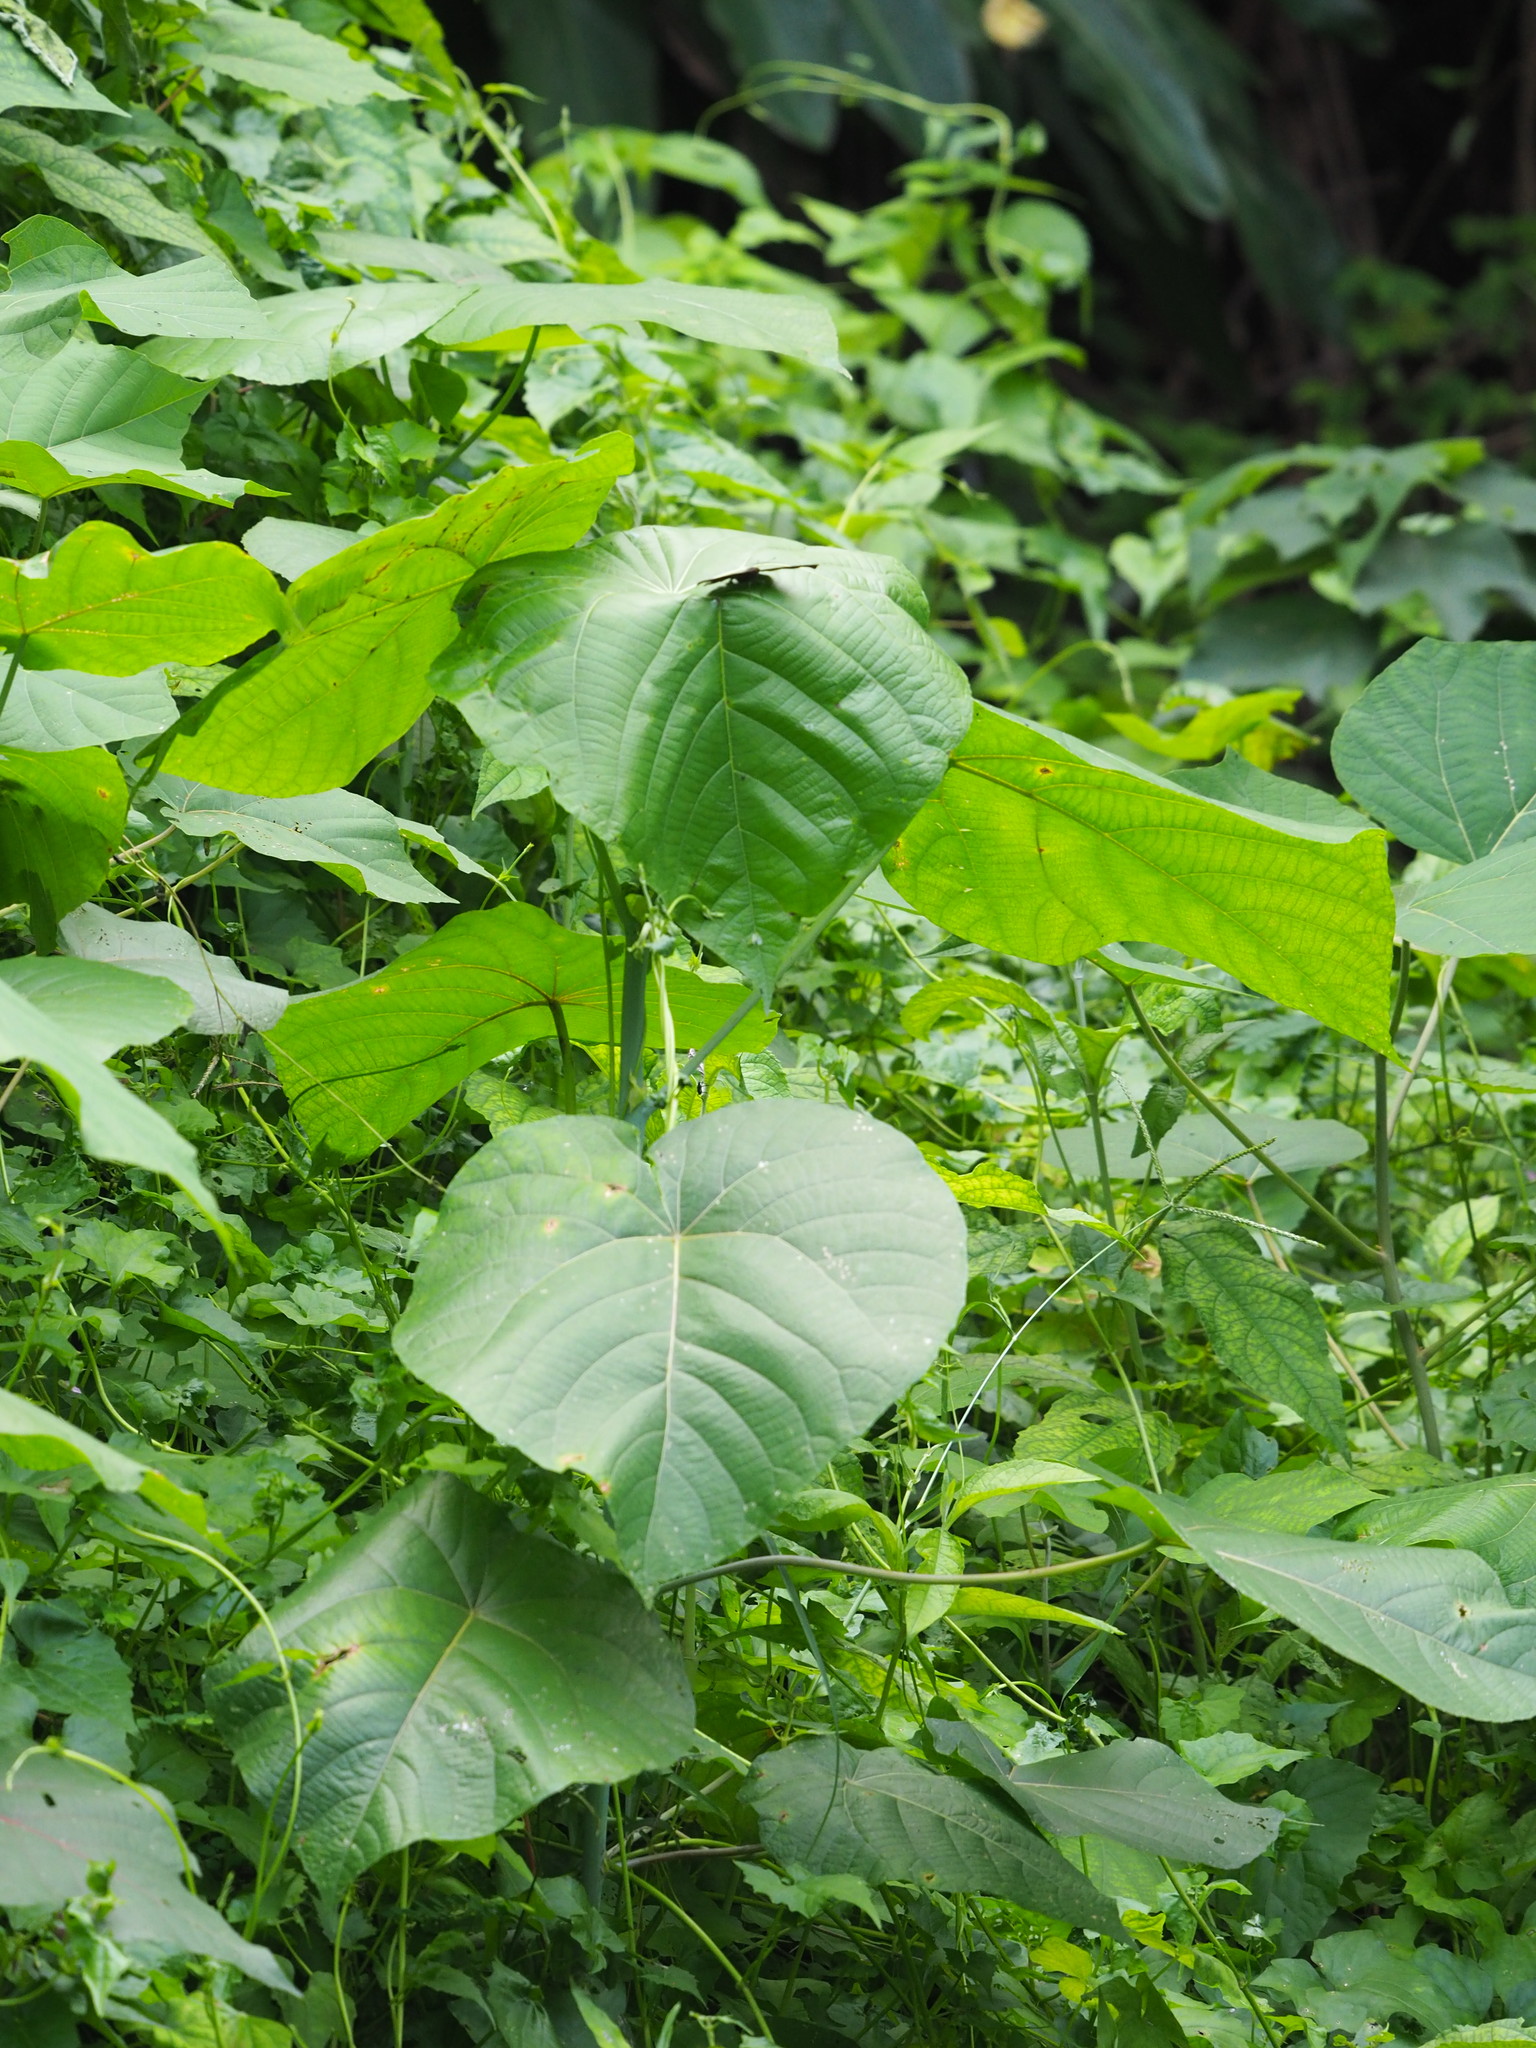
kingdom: Plantae
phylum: Tracheophyta
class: Magnoliopsida
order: Malpighiales
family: Euphorbiaceae
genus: Macaranga
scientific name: Macaranga tanarius
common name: Parasol leaf tree
